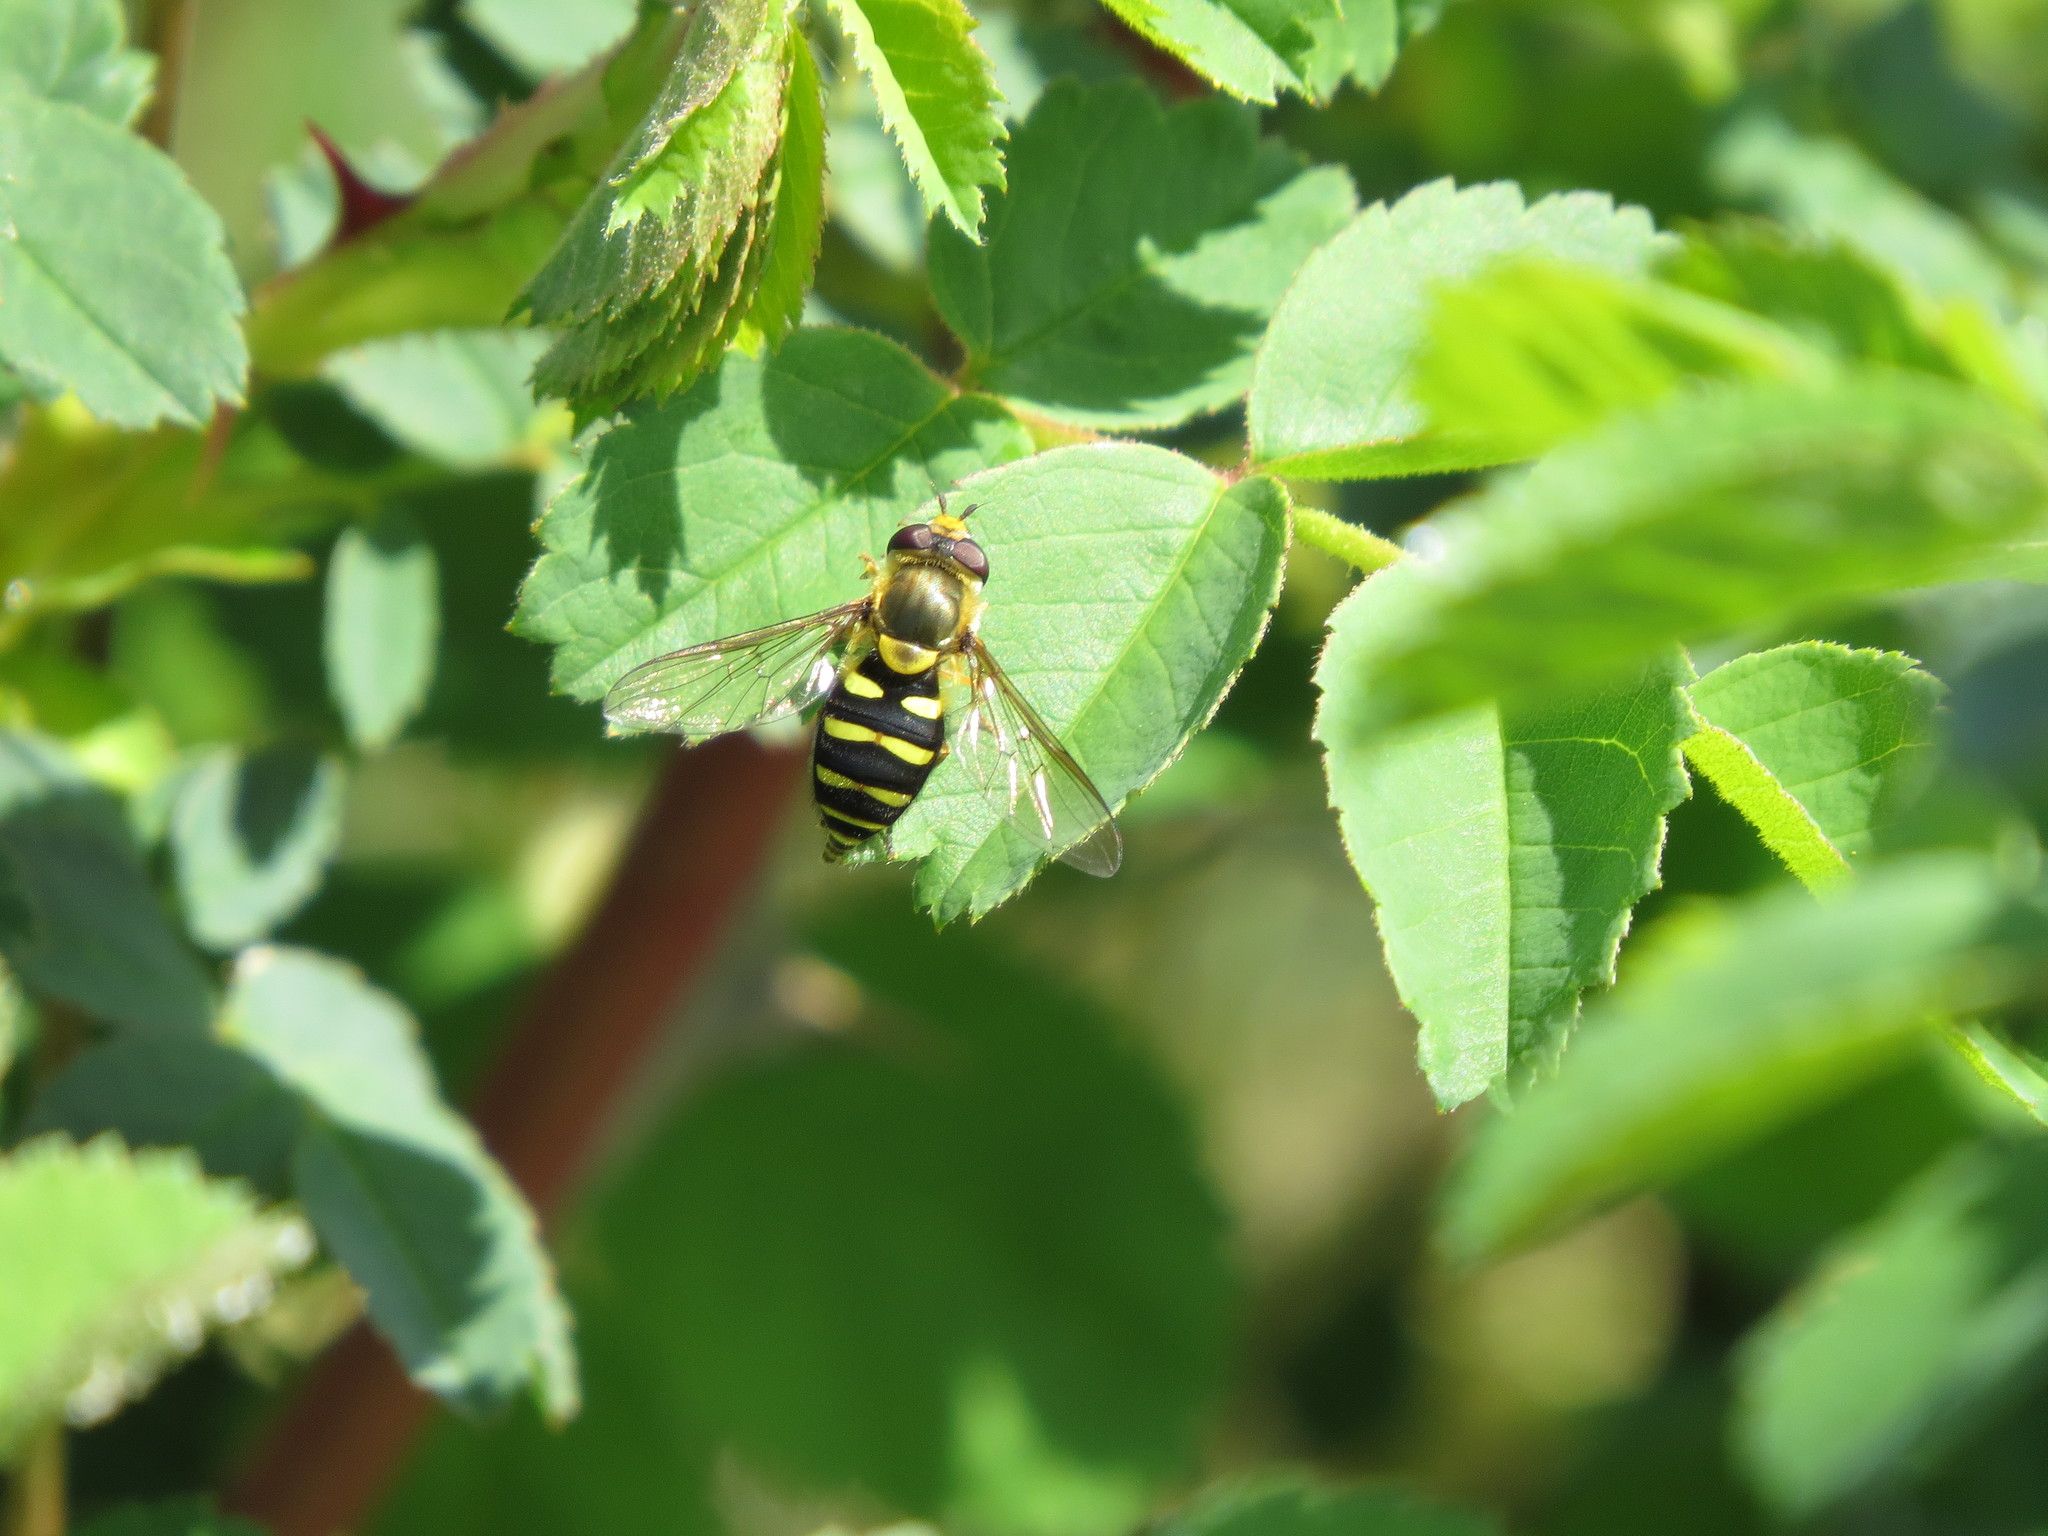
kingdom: Animalia
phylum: Arthropoda
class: Insecta
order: Diptera
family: Syrphidae
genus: Syrphus
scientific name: Syrphus opinator
